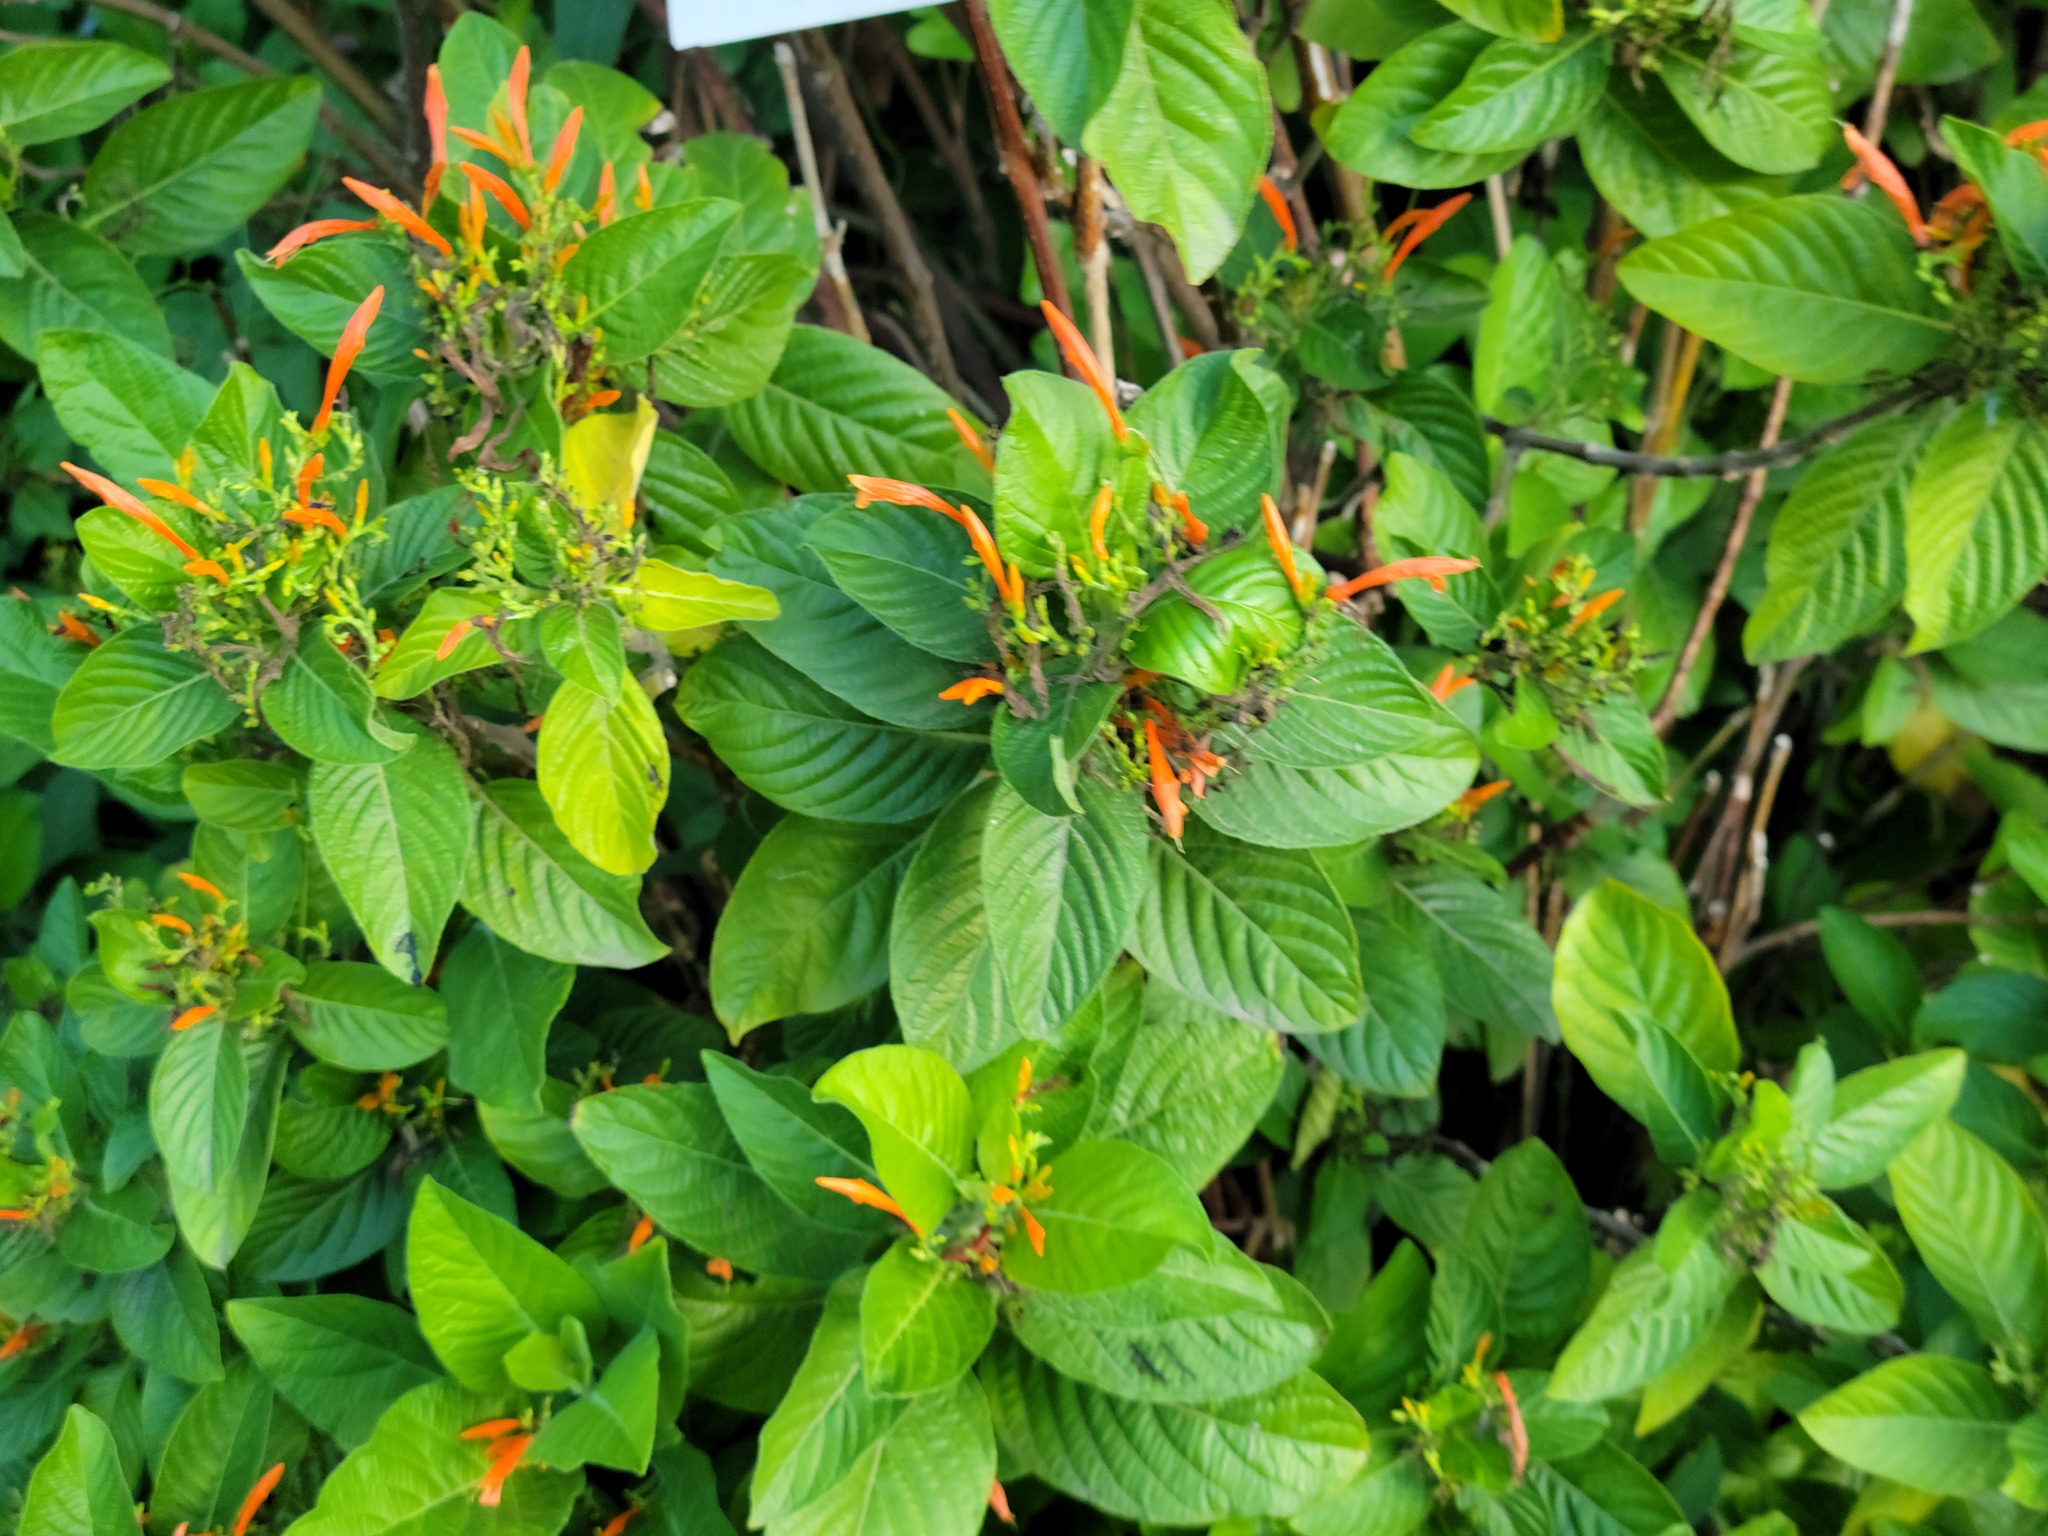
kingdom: Plantae
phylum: Tracheophyta
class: Magnoliopsida
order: Lamiales
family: Acanthaceae
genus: Justicia
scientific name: Justicia spicigera
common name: Mohintli
